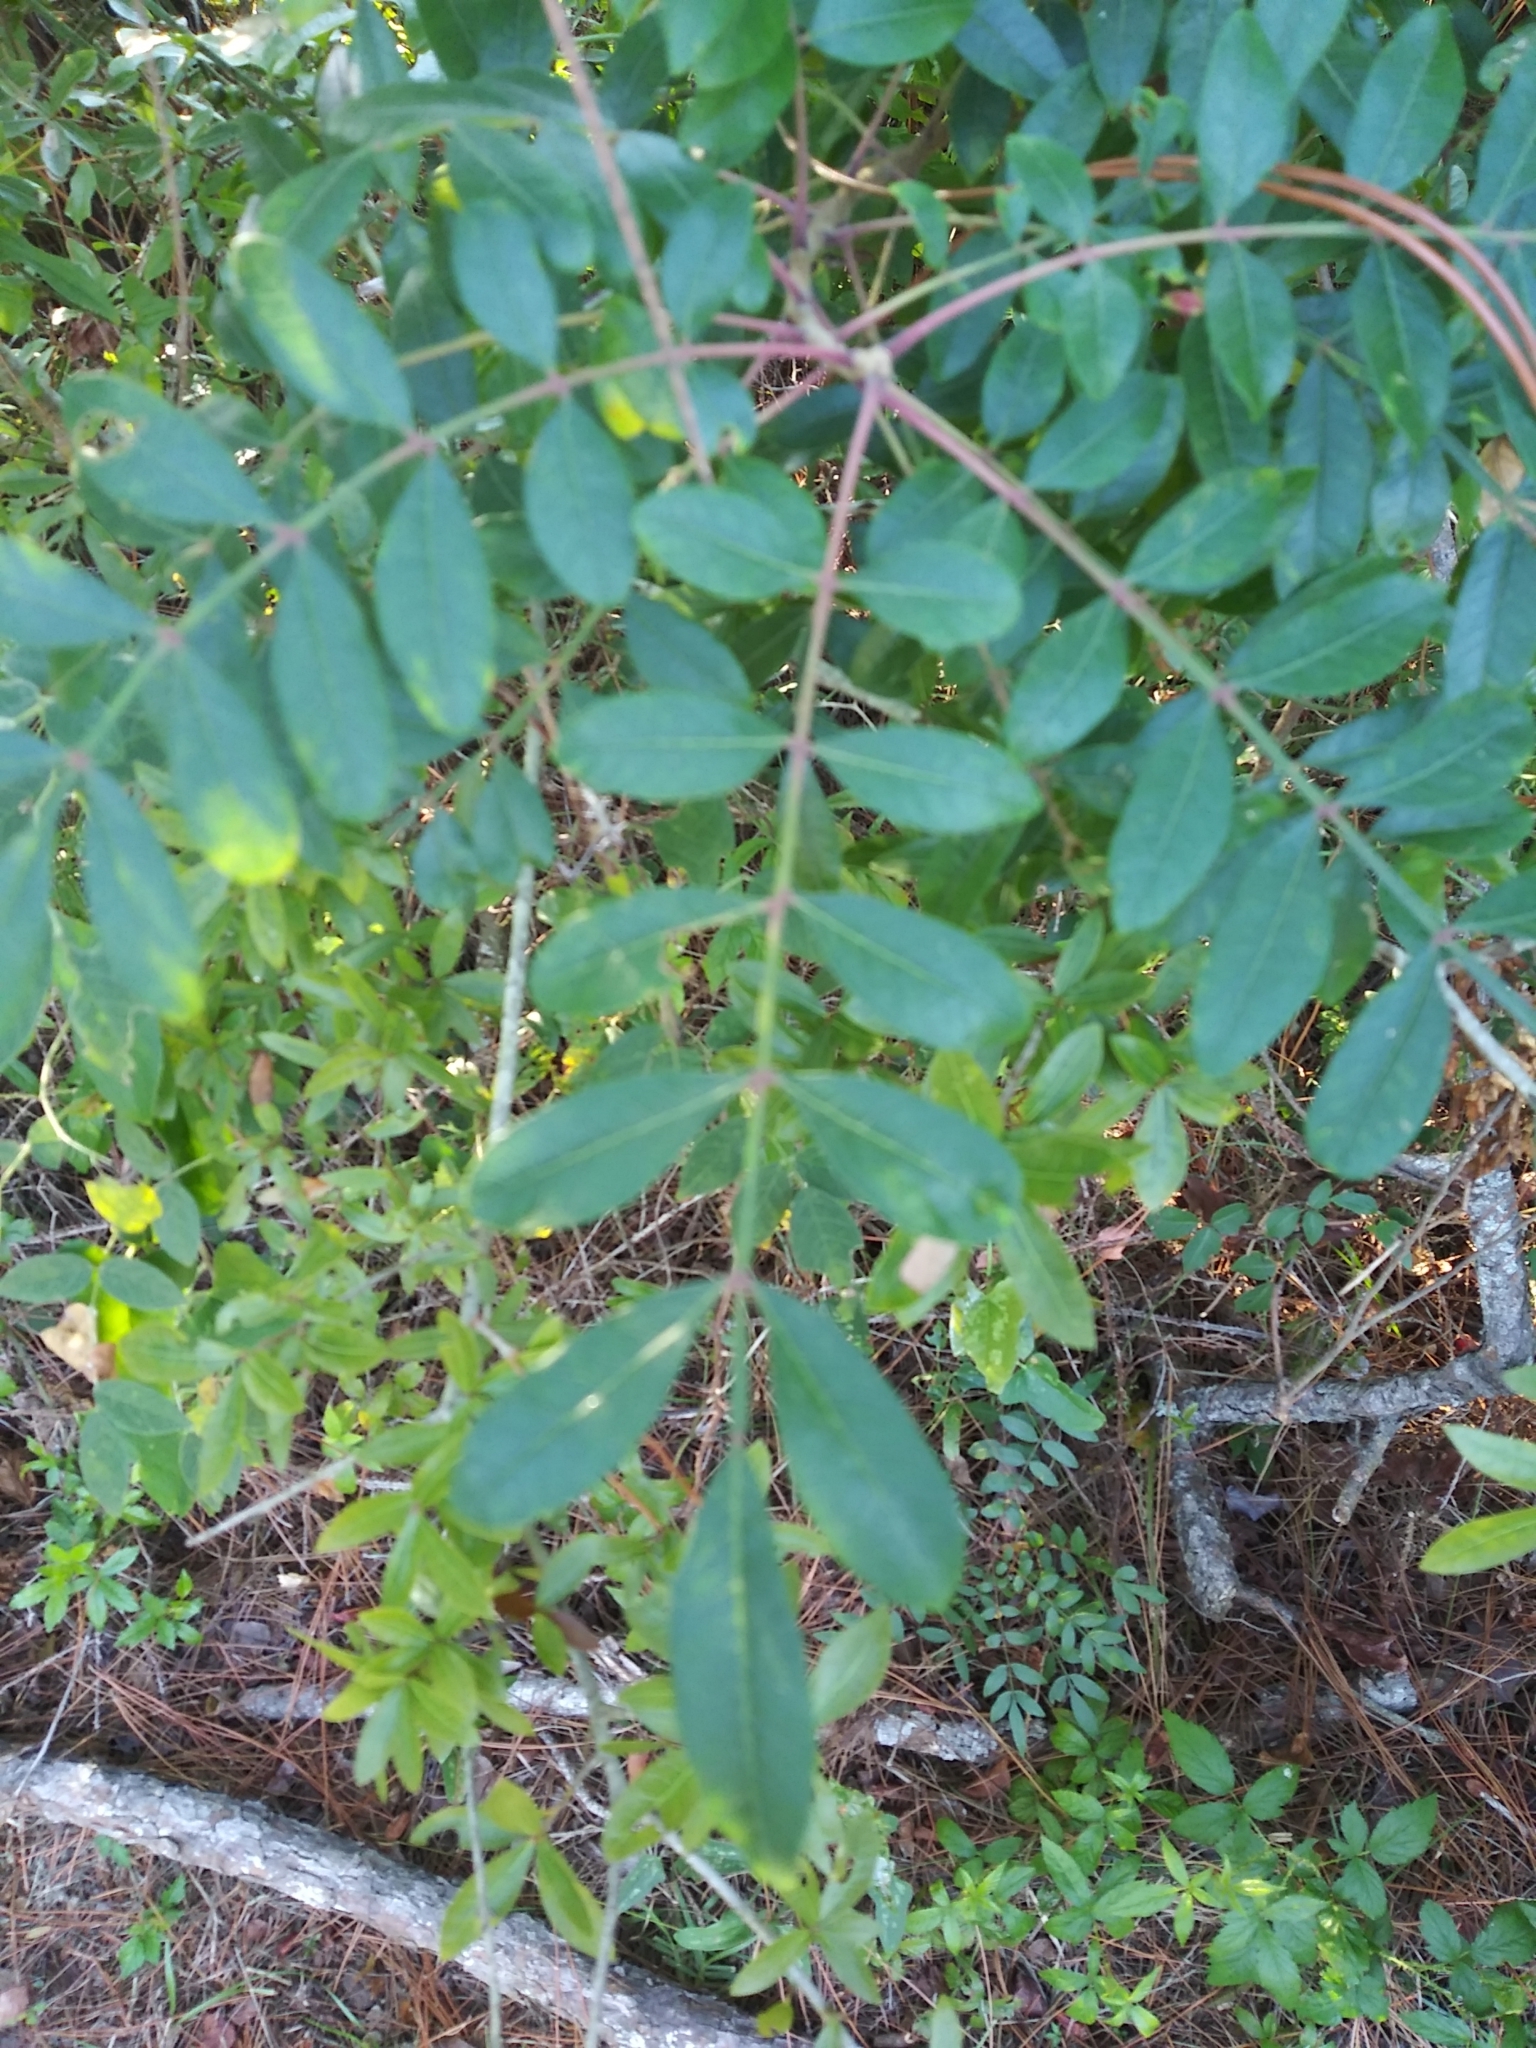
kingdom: Plantae
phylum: Tracheophyta
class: Magnoliopsida
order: Sapindales
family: Anacardiaceae
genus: Rhus
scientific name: Rhus copallina
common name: Shining sumac
